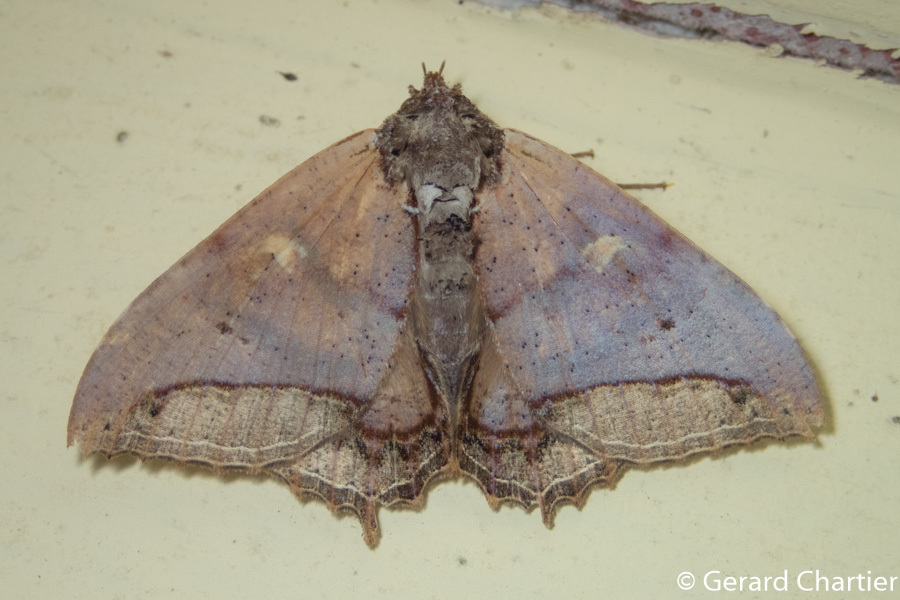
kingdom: Animalia
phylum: Arthropoda
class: Insecta
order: Lepidoptera
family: Erebidae
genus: Pterocyclophora
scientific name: Pterocyclophora ridleyi
